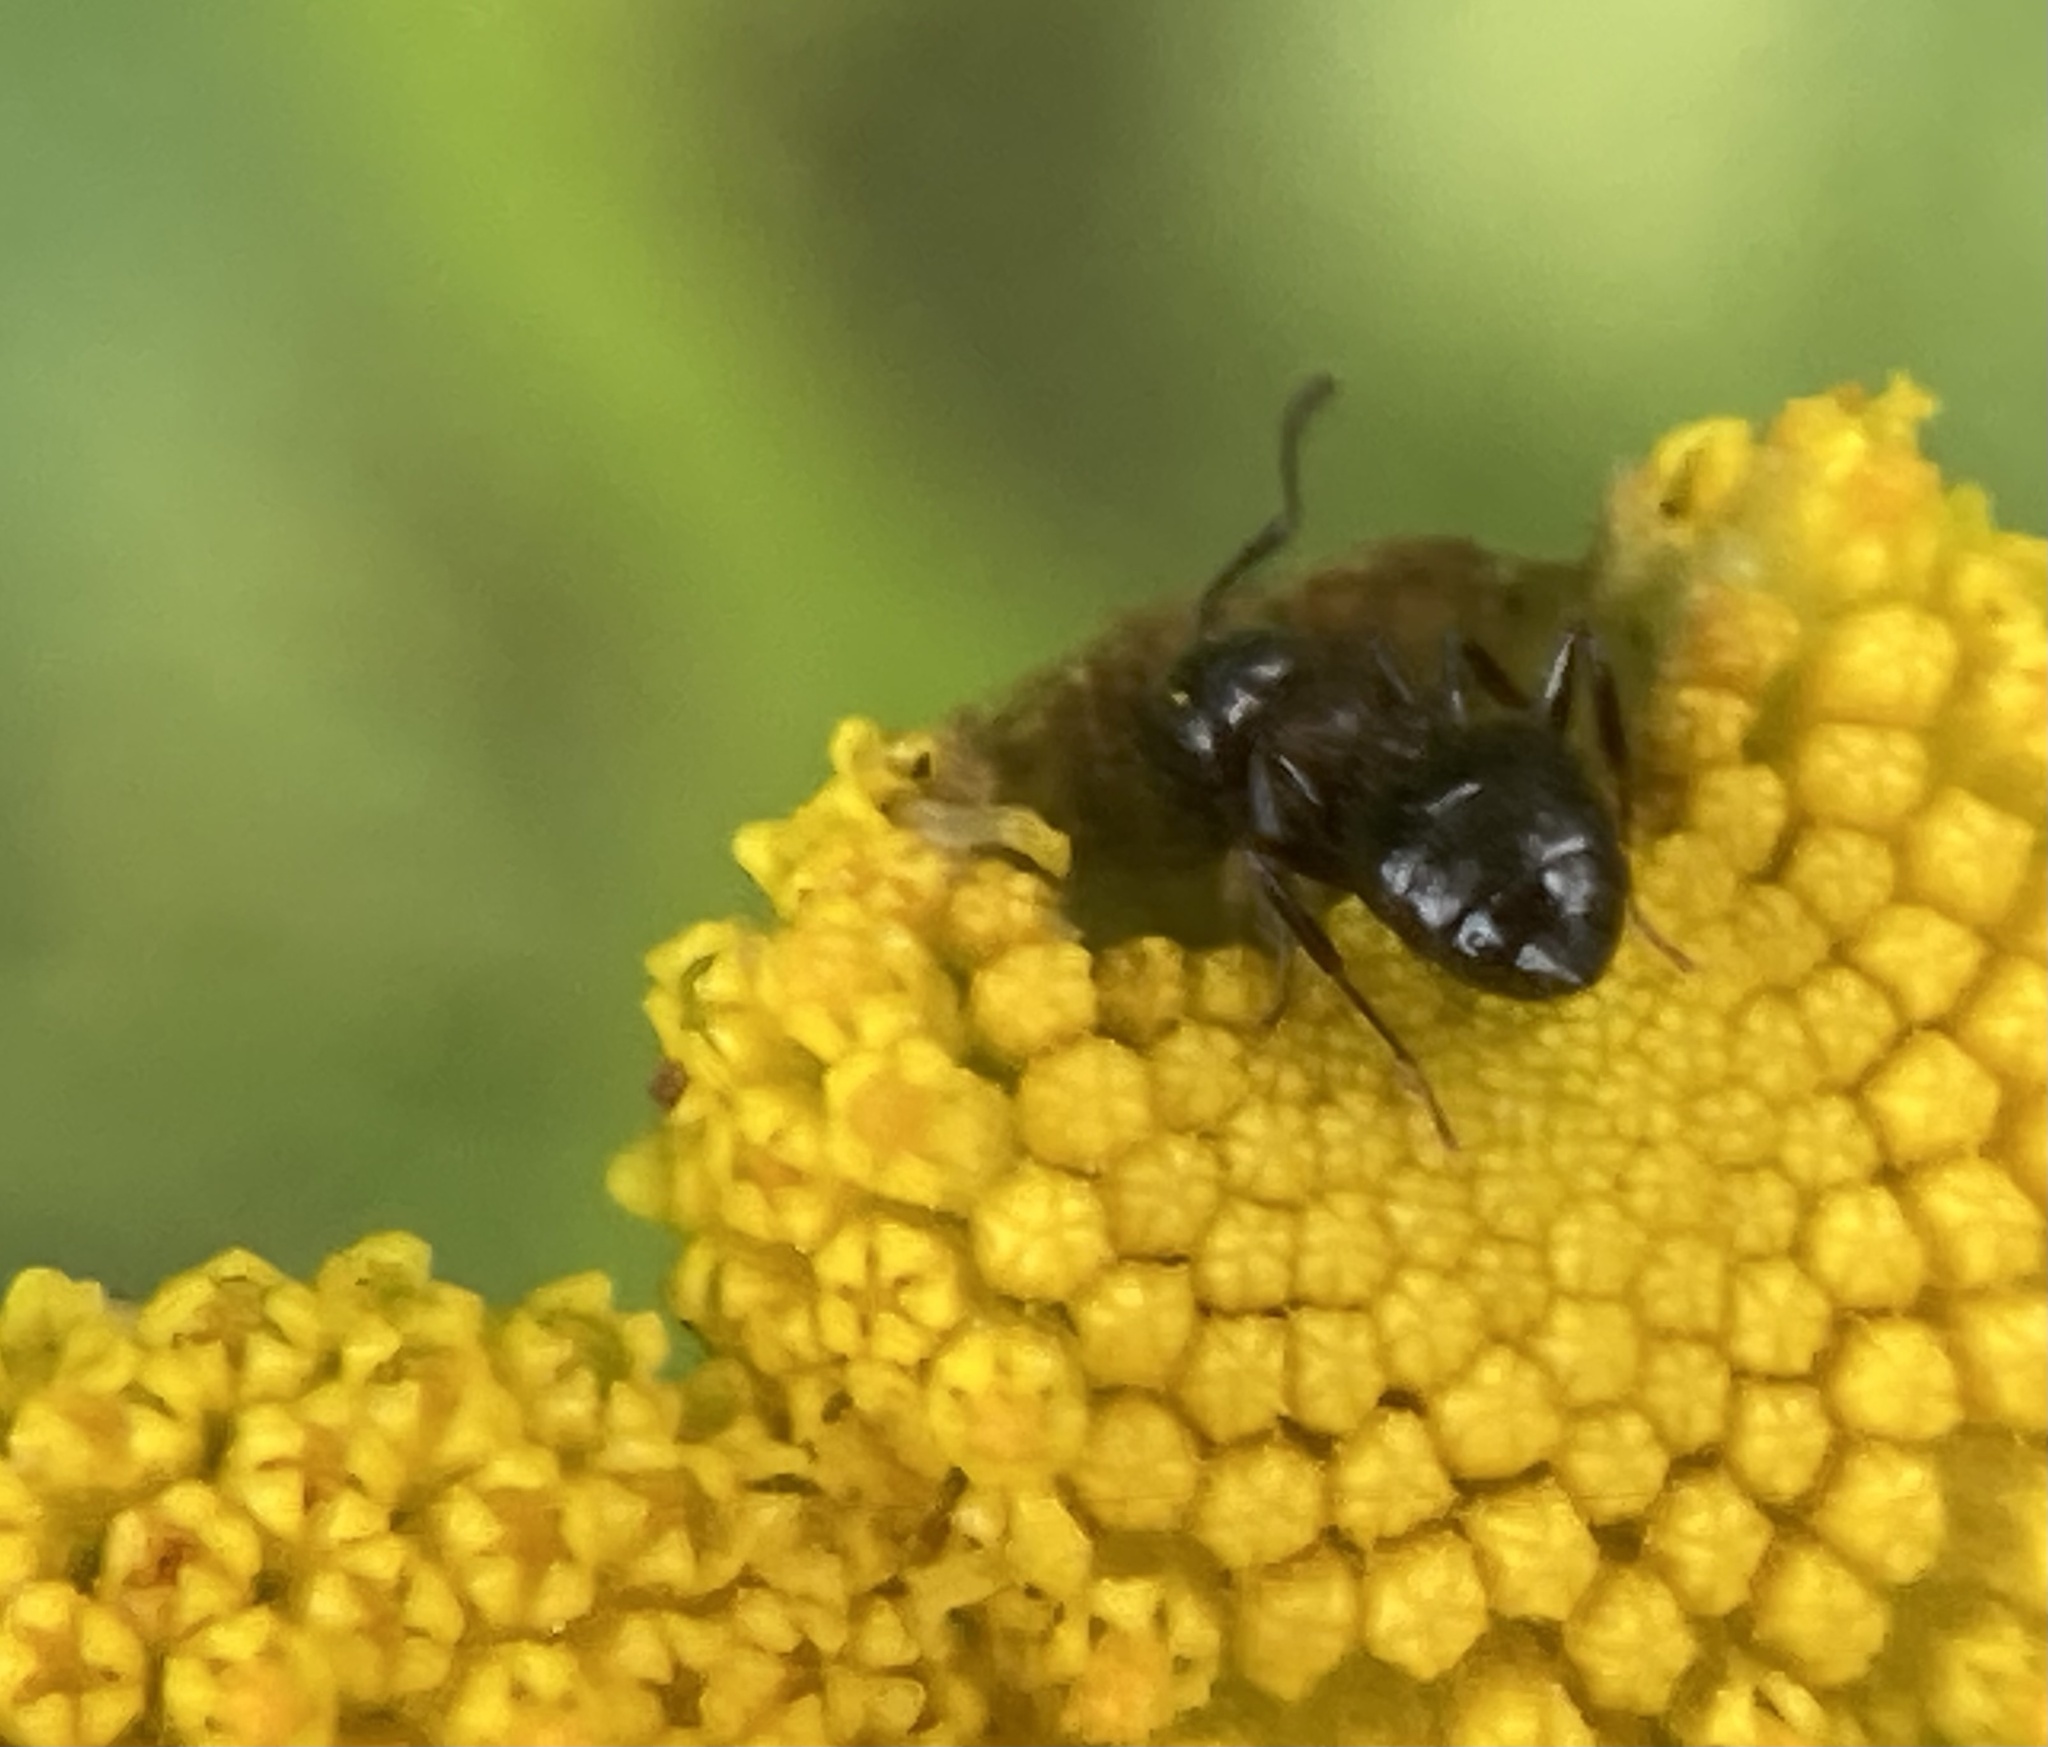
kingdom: Animalia
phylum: Arthropoda
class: Insecta
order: Hymenoptera
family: Formicidae
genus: Camponotus
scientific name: Camponotus nearcticus
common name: Smaller carpenter ant
